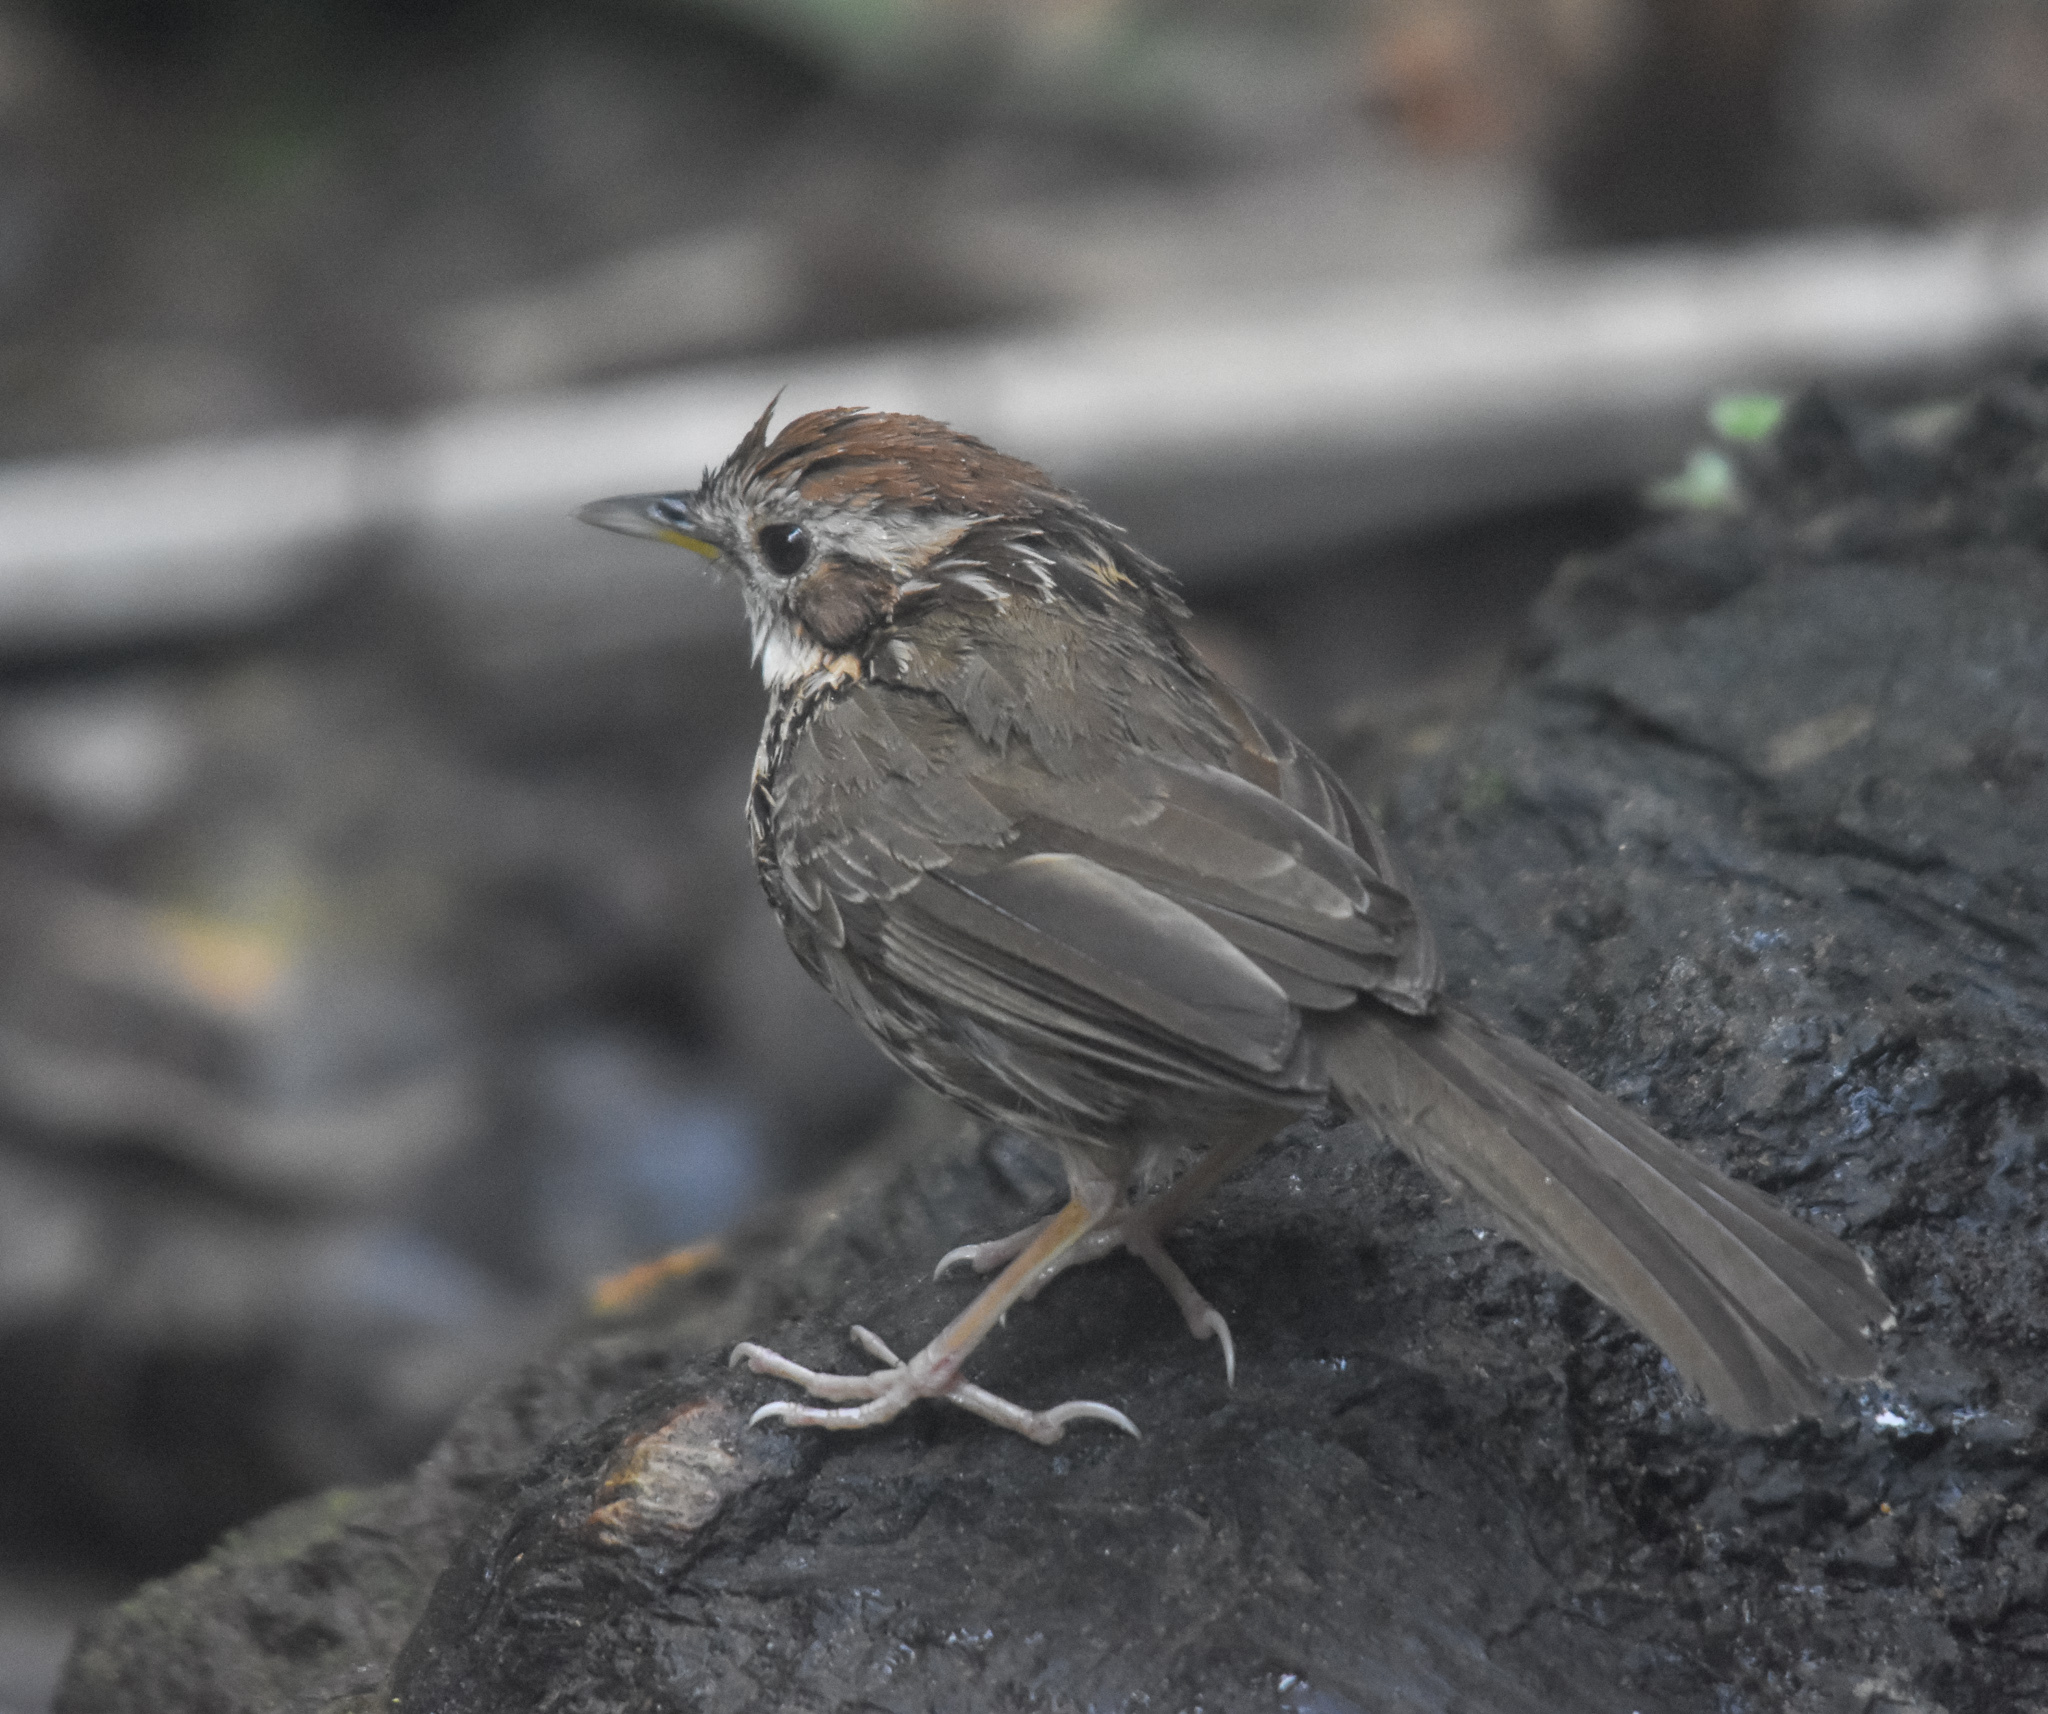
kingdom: Animalia
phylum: Chordata
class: Aves
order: Passeriformes
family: Pellorneidae
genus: Pellorneum
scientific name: Pellorneum ruficeps
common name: Puff-throated babbler
